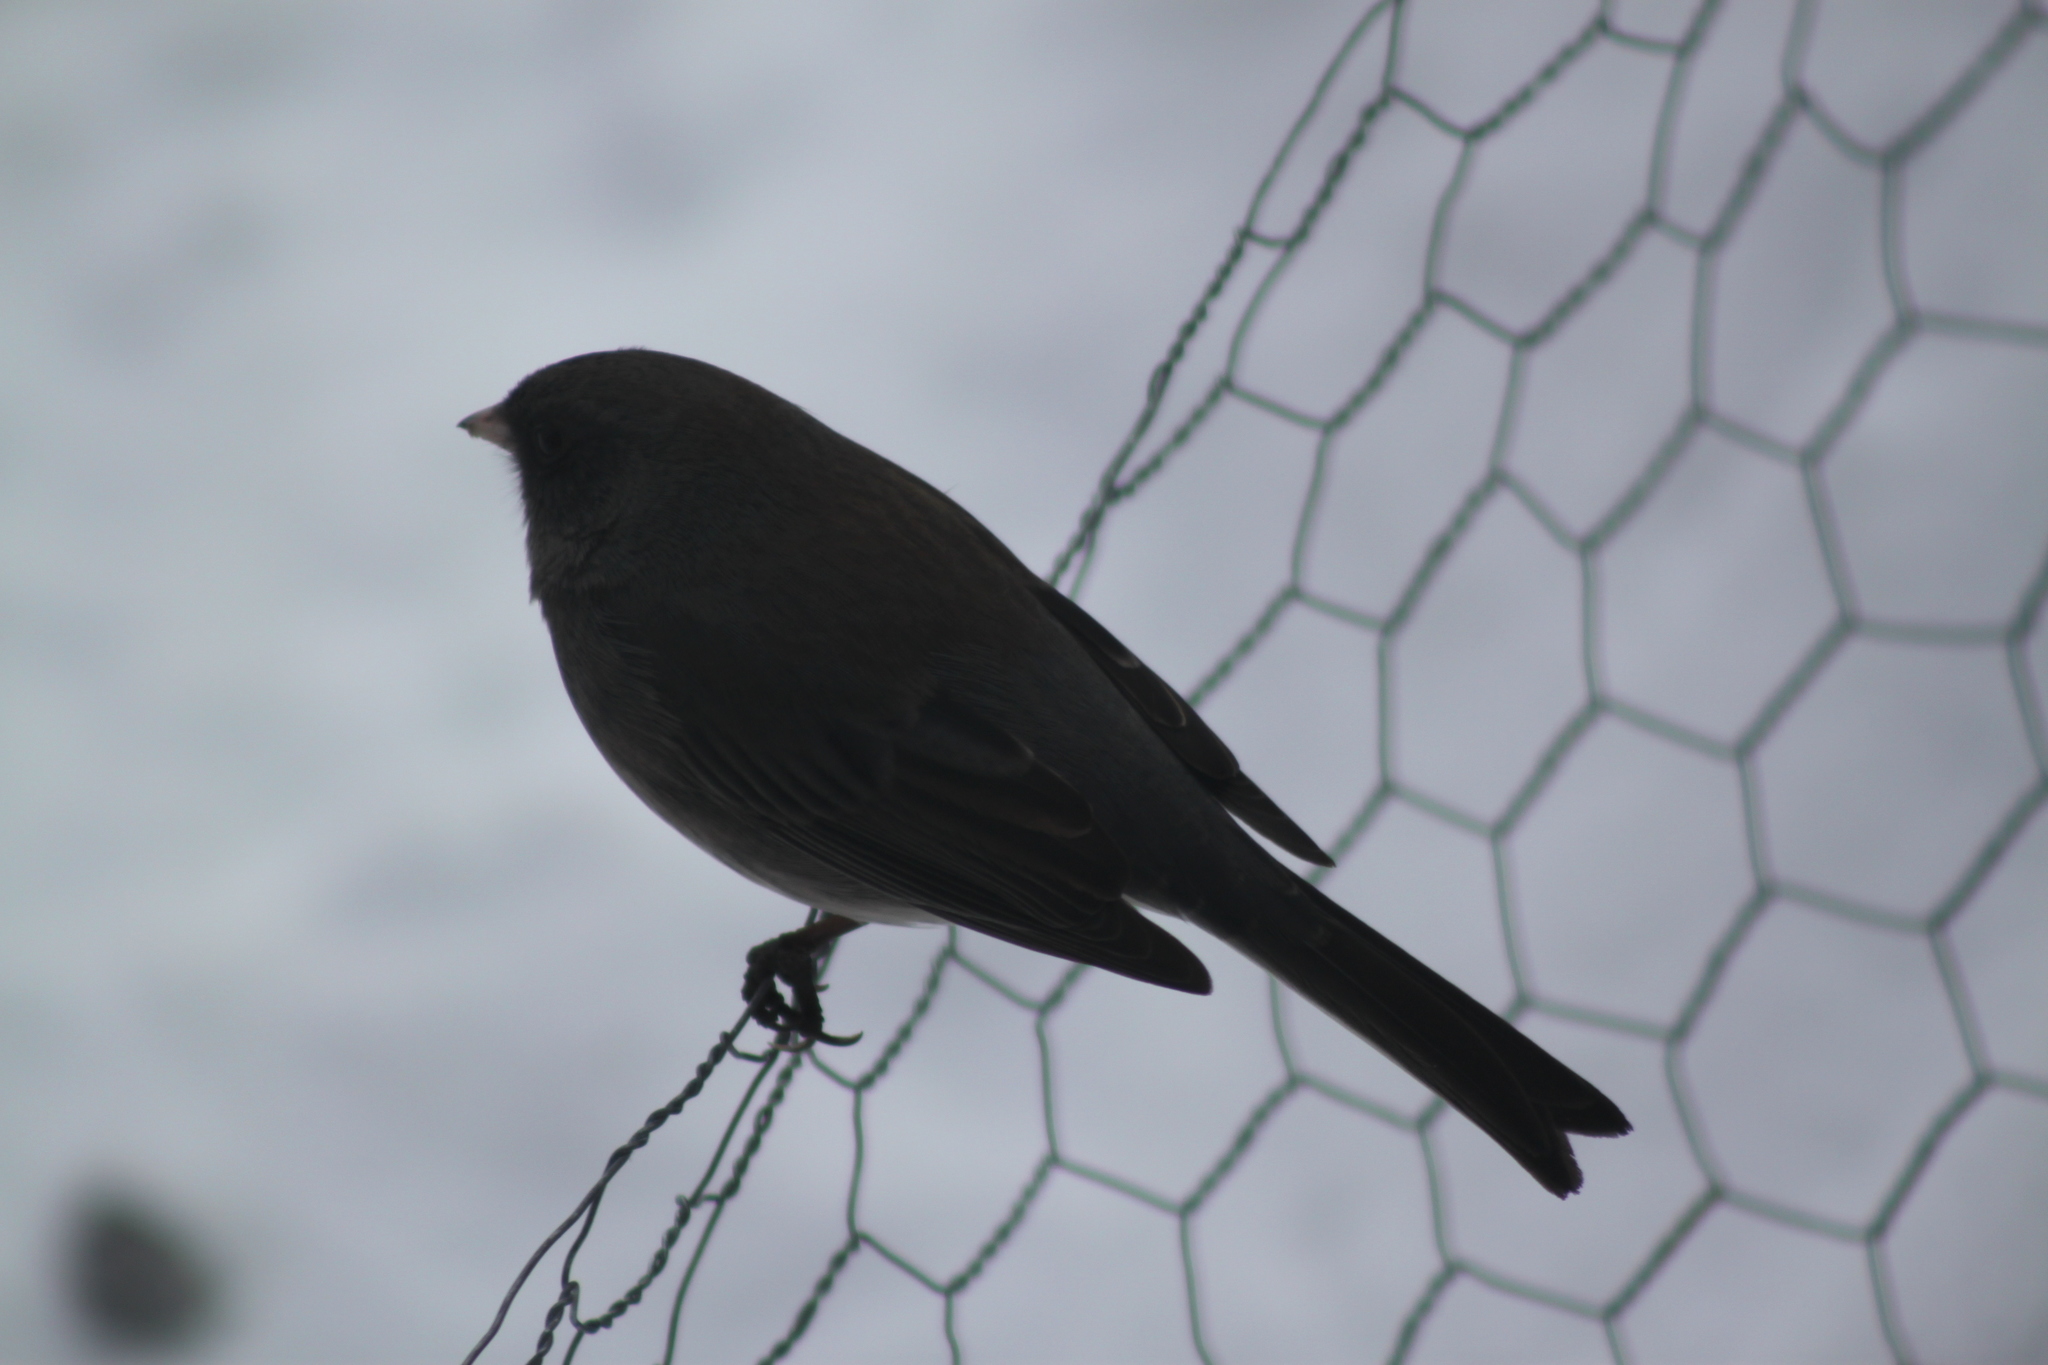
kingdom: Animalia
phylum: Chordata
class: Aves
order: Passeriformes
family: Passerellidae
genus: Junco
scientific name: Junco hyemalis
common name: Dark-eyed junco
